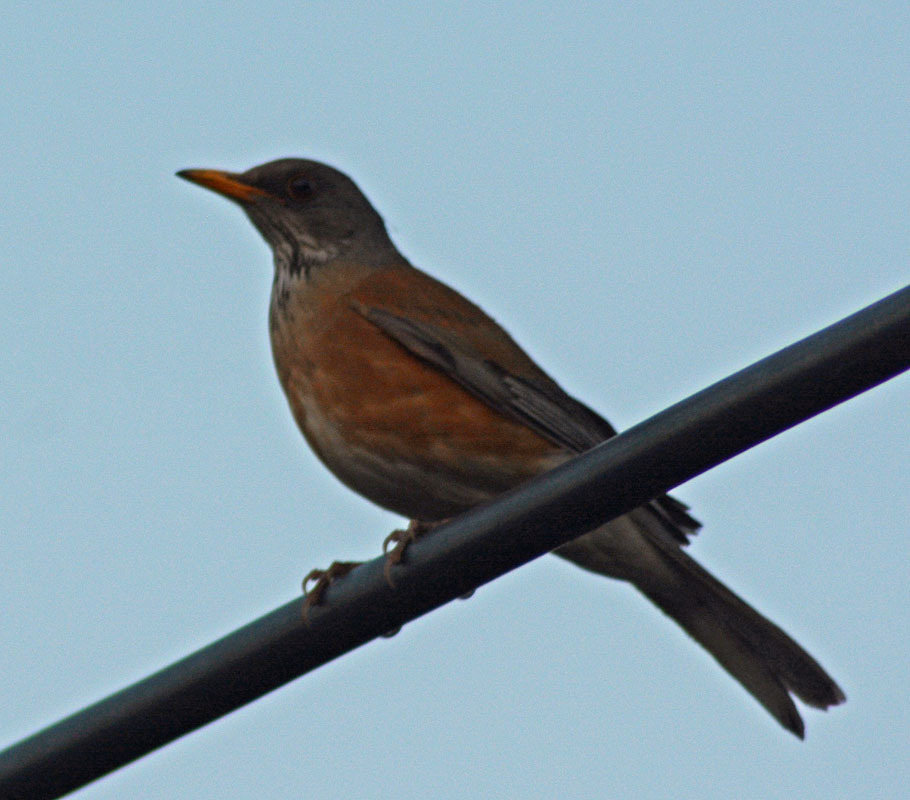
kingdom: Animalia
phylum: Chordata
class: Aves
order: Passeriformes
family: Turdidae
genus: Turdus
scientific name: Turdus rufopalliatus
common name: Rufous-backed robin
